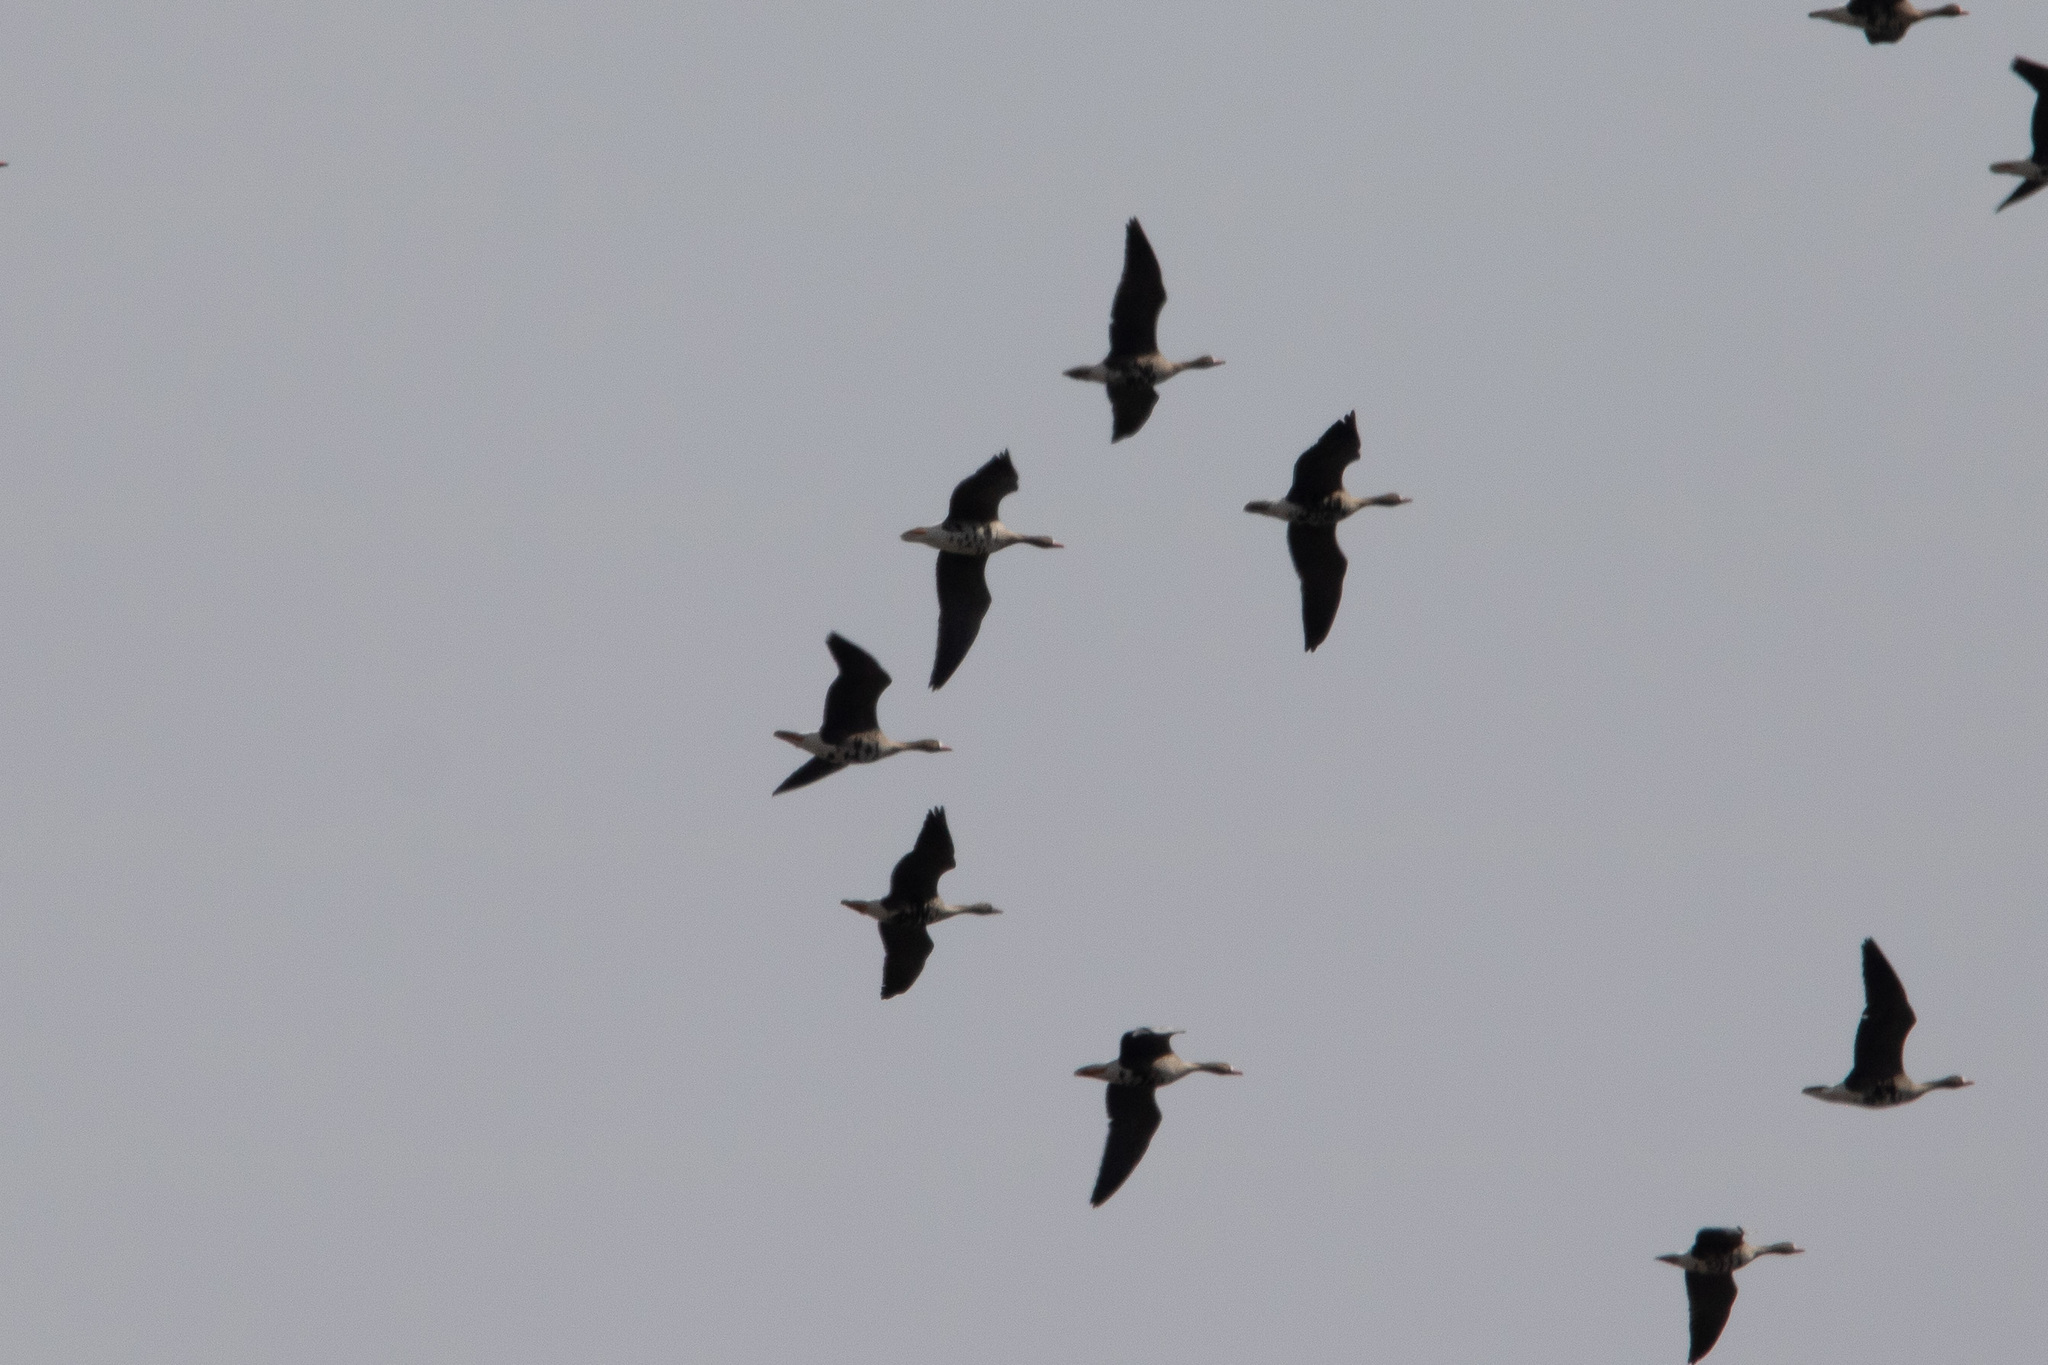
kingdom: Animalia
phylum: Chordata
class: Aves
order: Anseriformes
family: Anatidae
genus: Anser
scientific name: Anser albifrons
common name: Greater white-fronted goose
